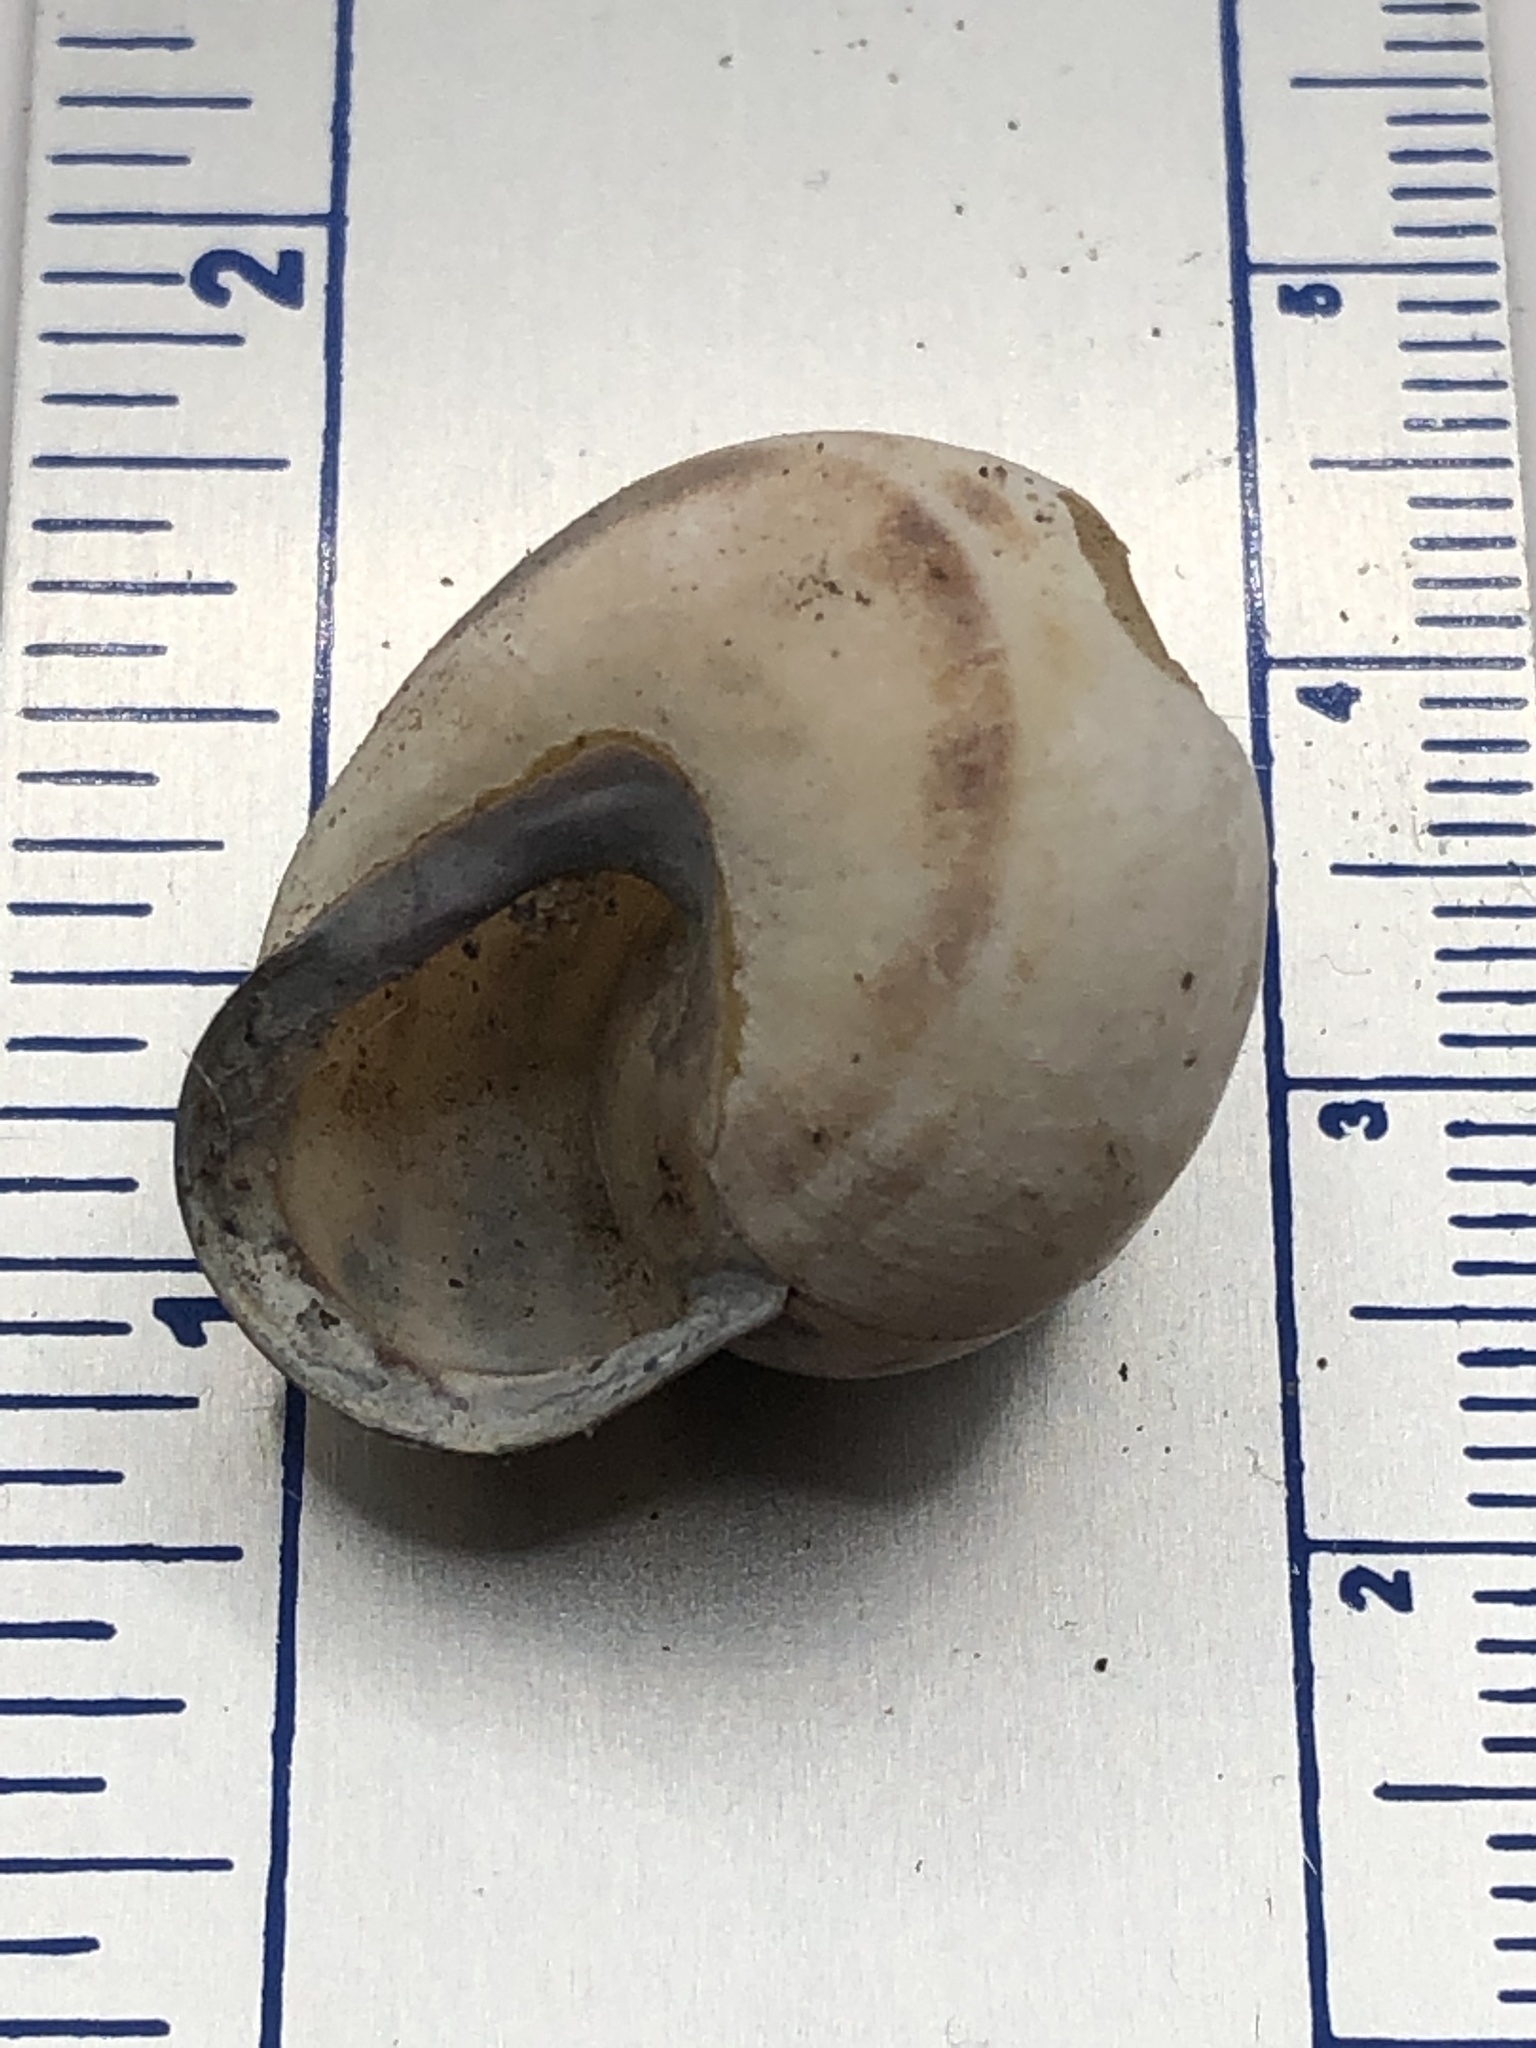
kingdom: Animalia
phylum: Mollusca
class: Gastropoda
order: Stylommatophora
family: Helicidae
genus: Cepaea
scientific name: Cepaea nemoralis
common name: Grovesnail
